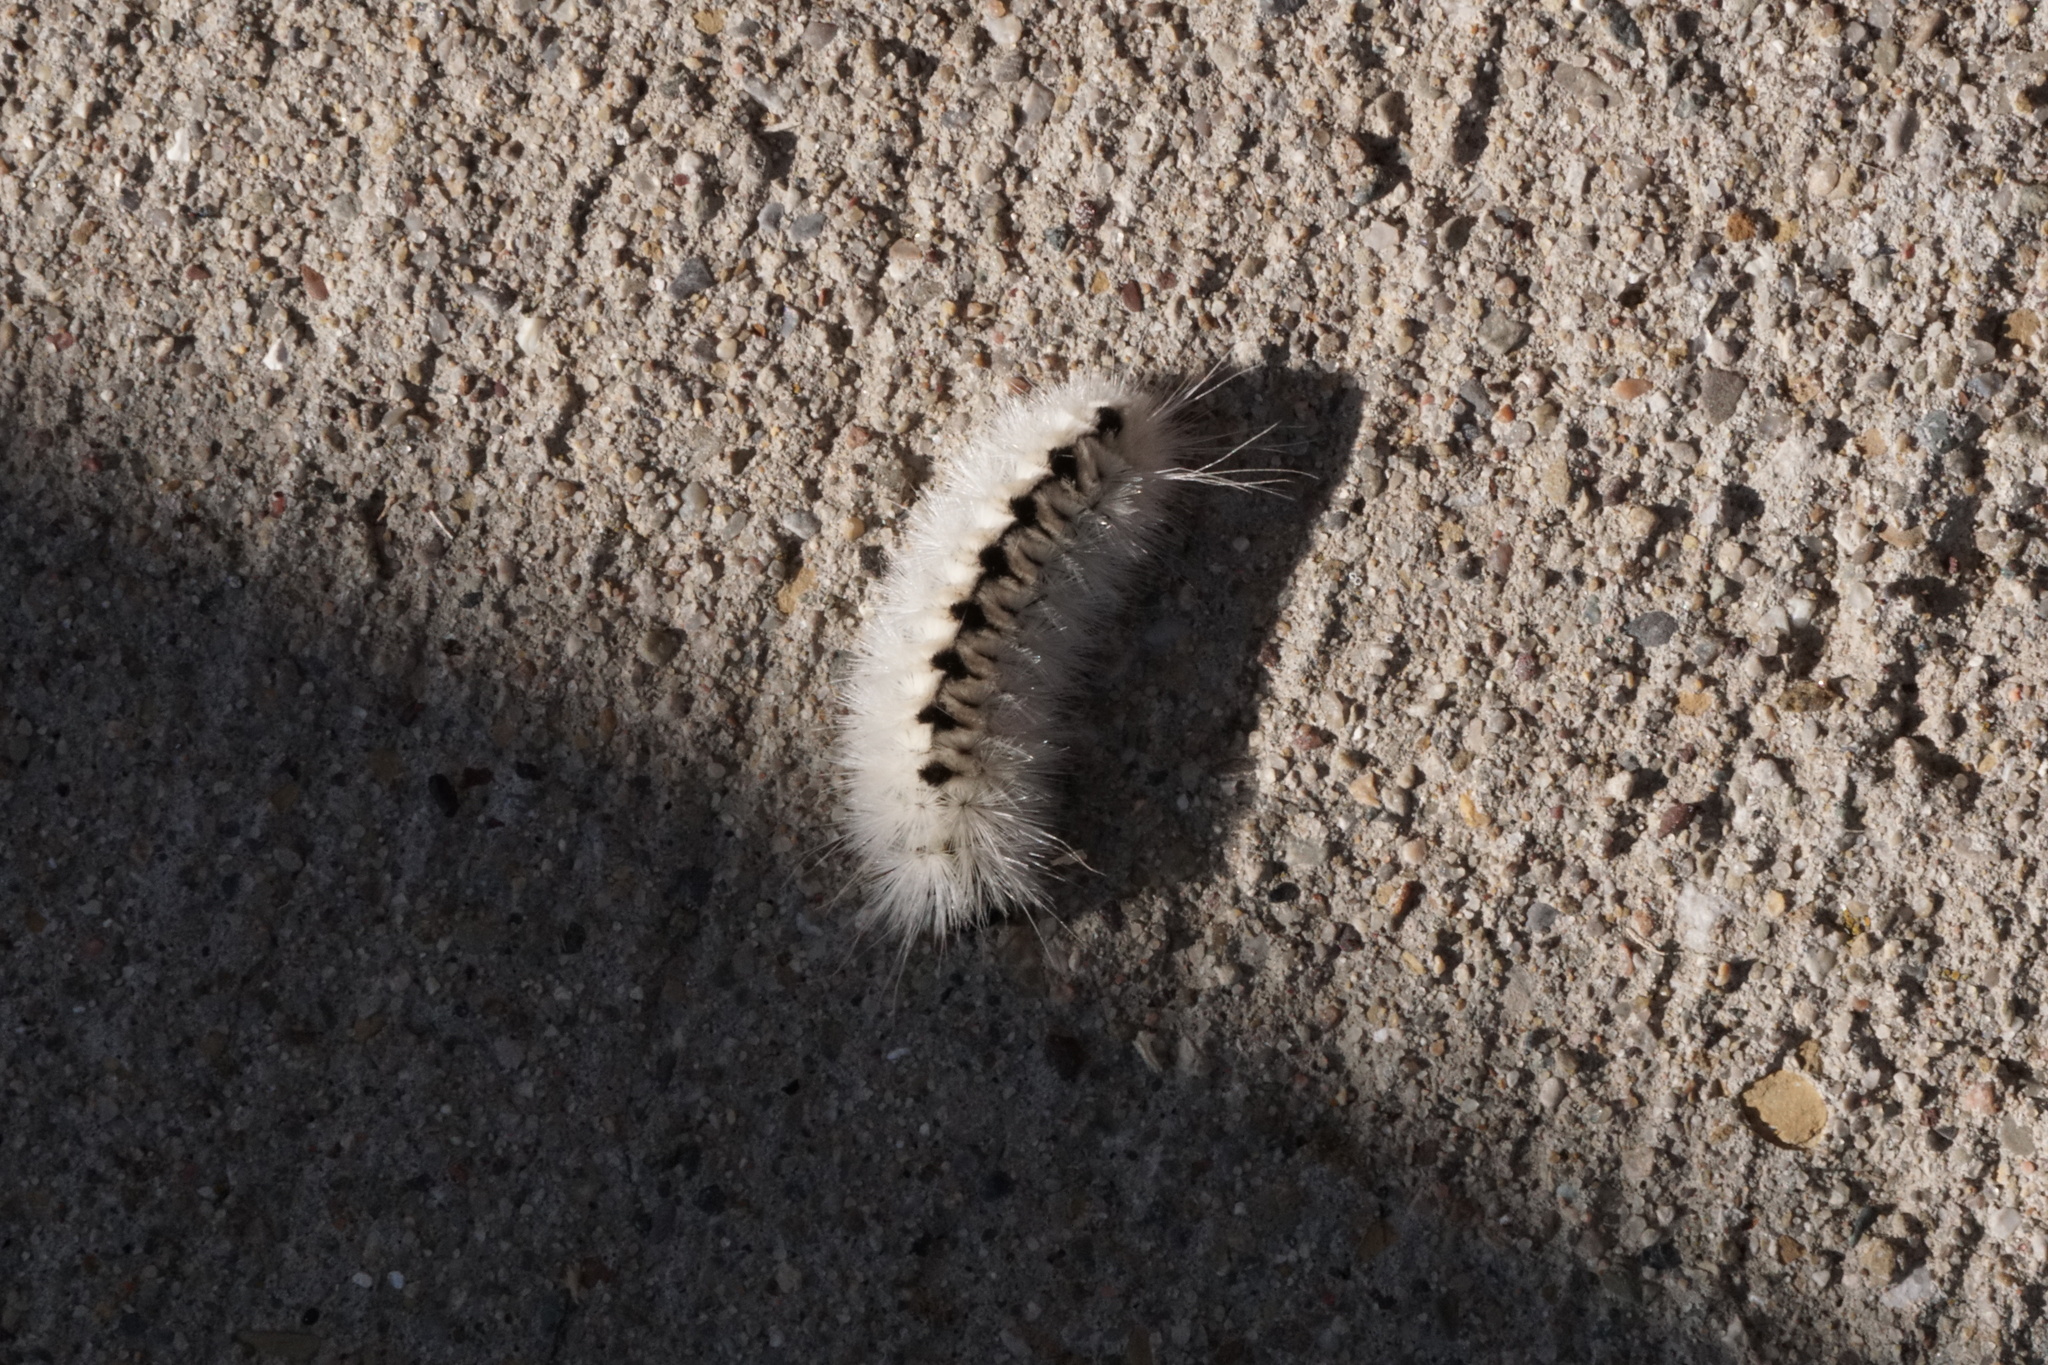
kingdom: Animalia
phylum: Arthropoda
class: Insecta
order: Lepidoptera
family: Erebidae
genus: Lophocampa
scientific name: Lophocampa caryae
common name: Hickory tussock moth
